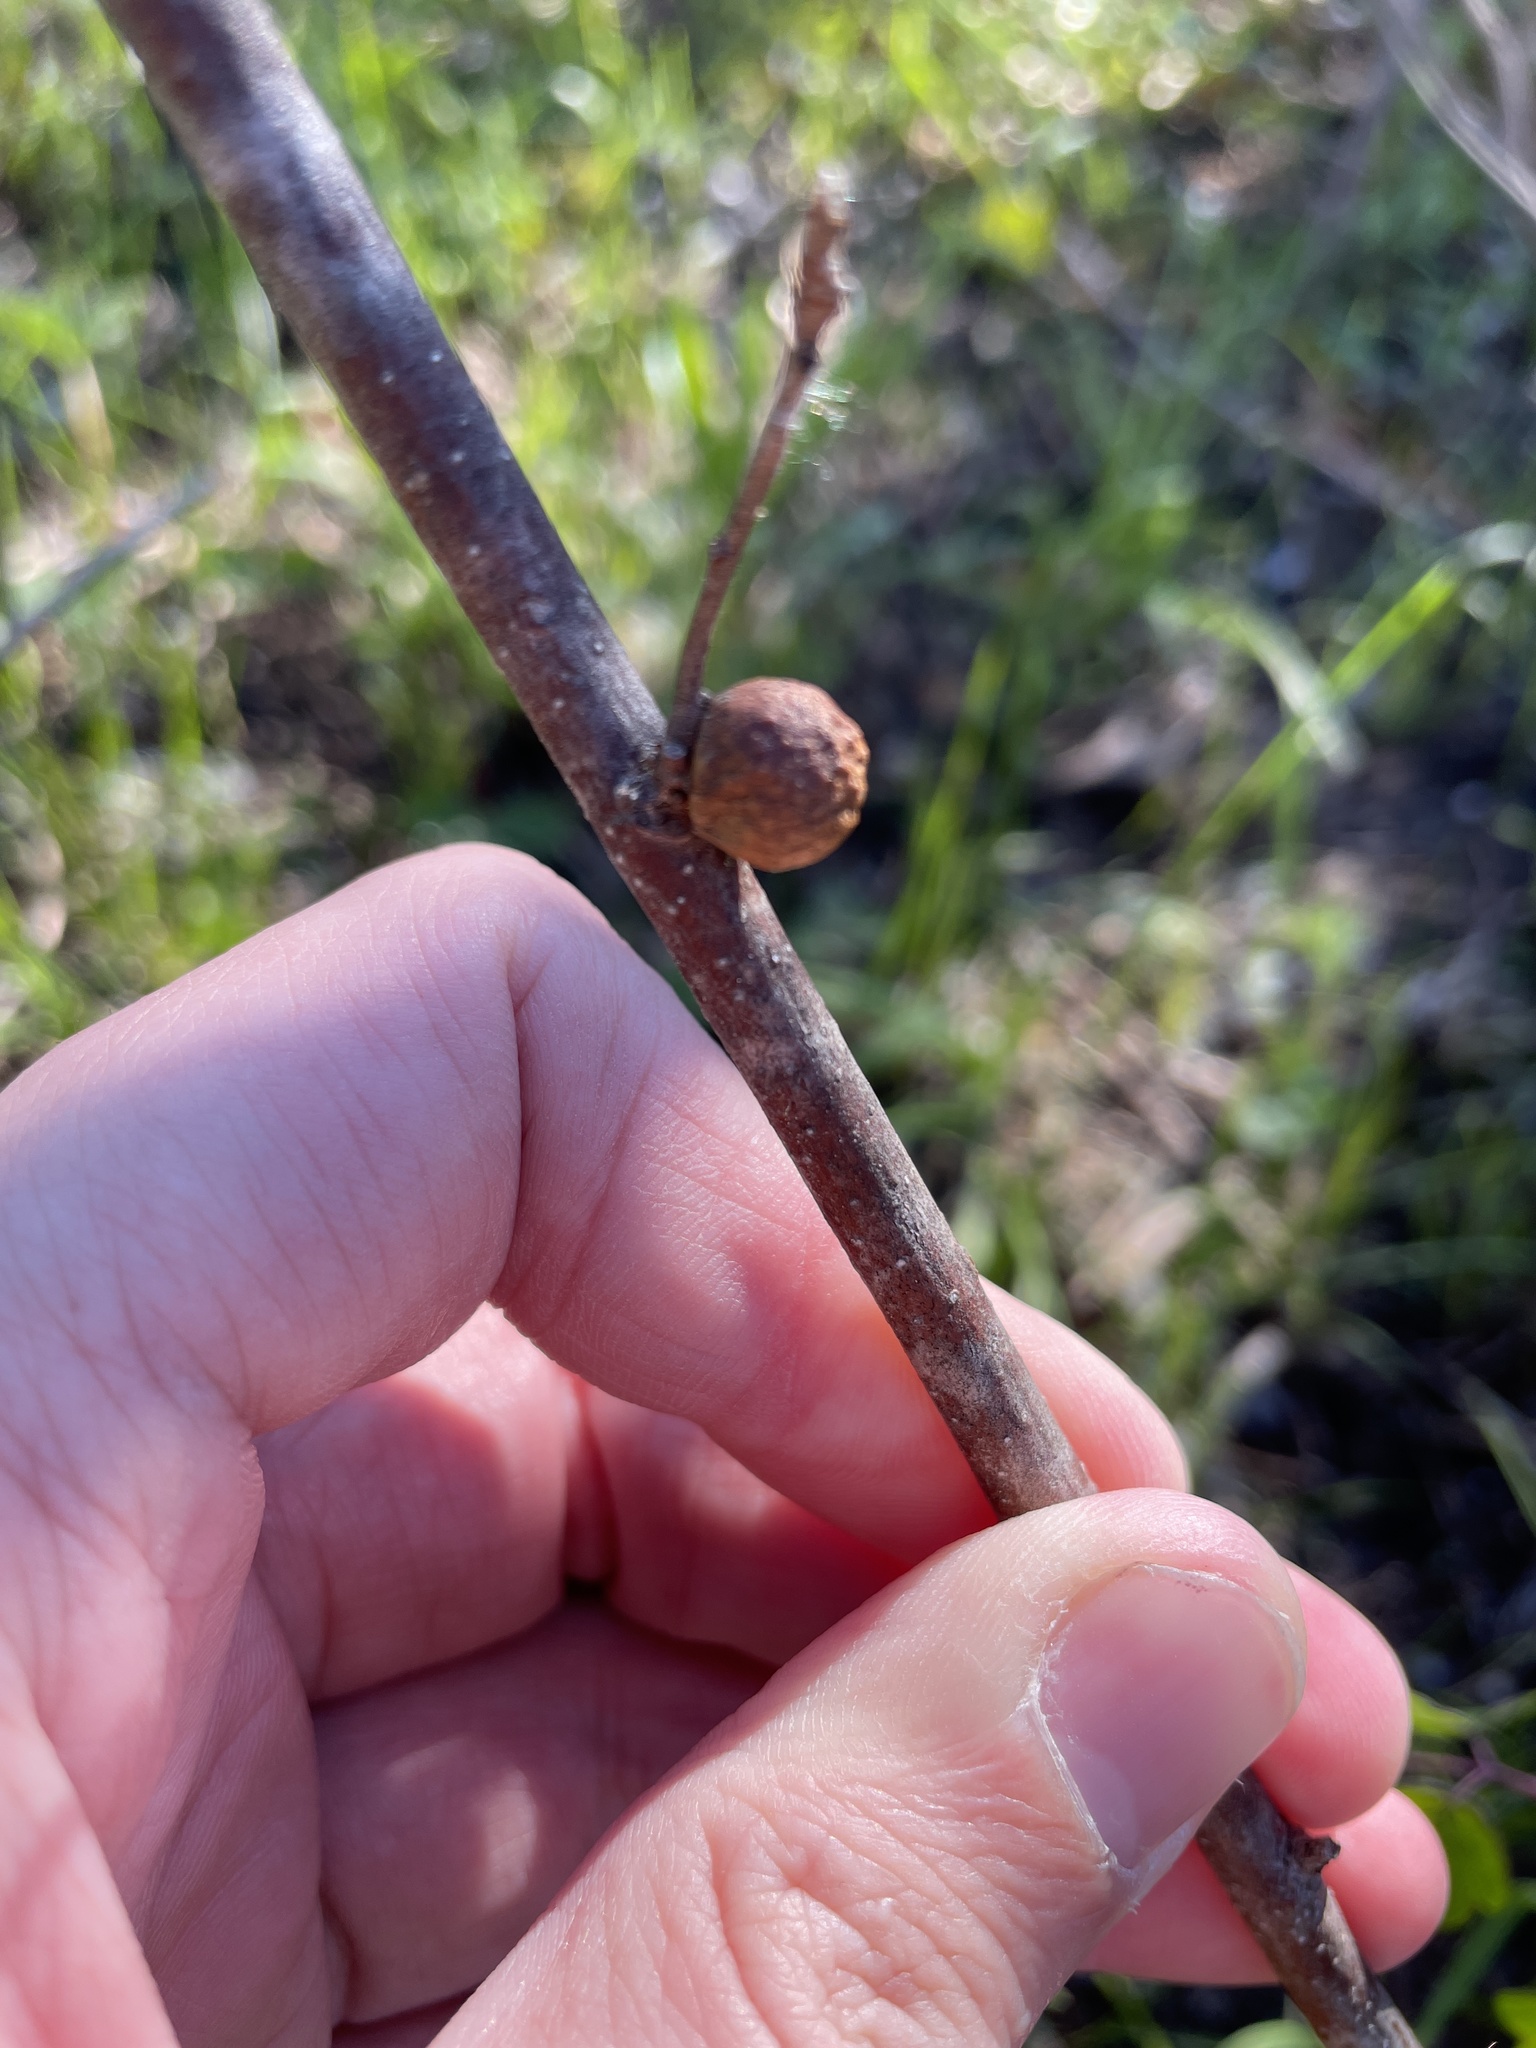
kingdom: Animalia
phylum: Arthropoda
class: Insecta
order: Hymenoptera
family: Cynipidae
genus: Disholcaspis
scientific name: Disholcaspis quercusglobulus
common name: Round bullet gall wasp
